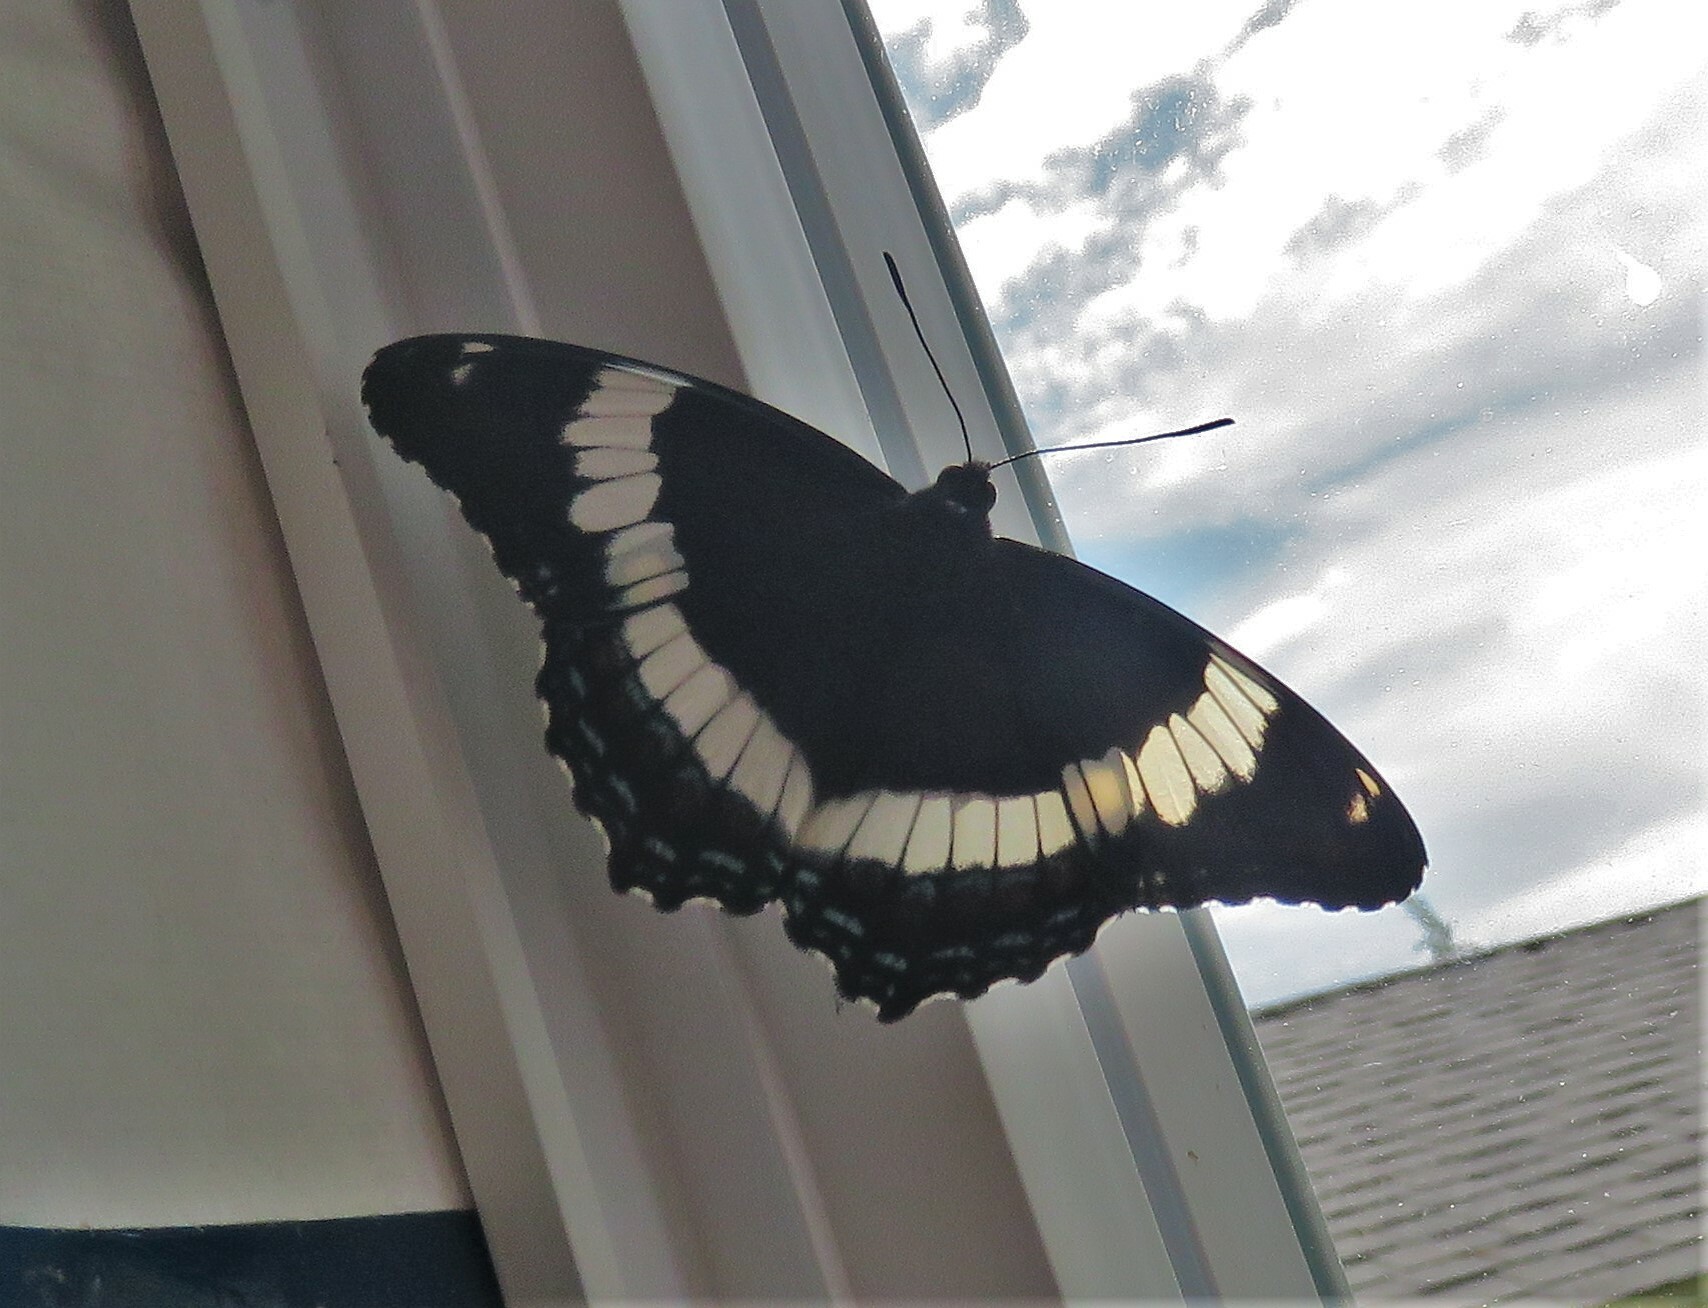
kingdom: Animalia
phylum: Arthropoda
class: Insecta
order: Lepidoptera
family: Nymphalidae
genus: Limenitis
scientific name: Limenitis arthemis
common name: Red-spotted admiral
